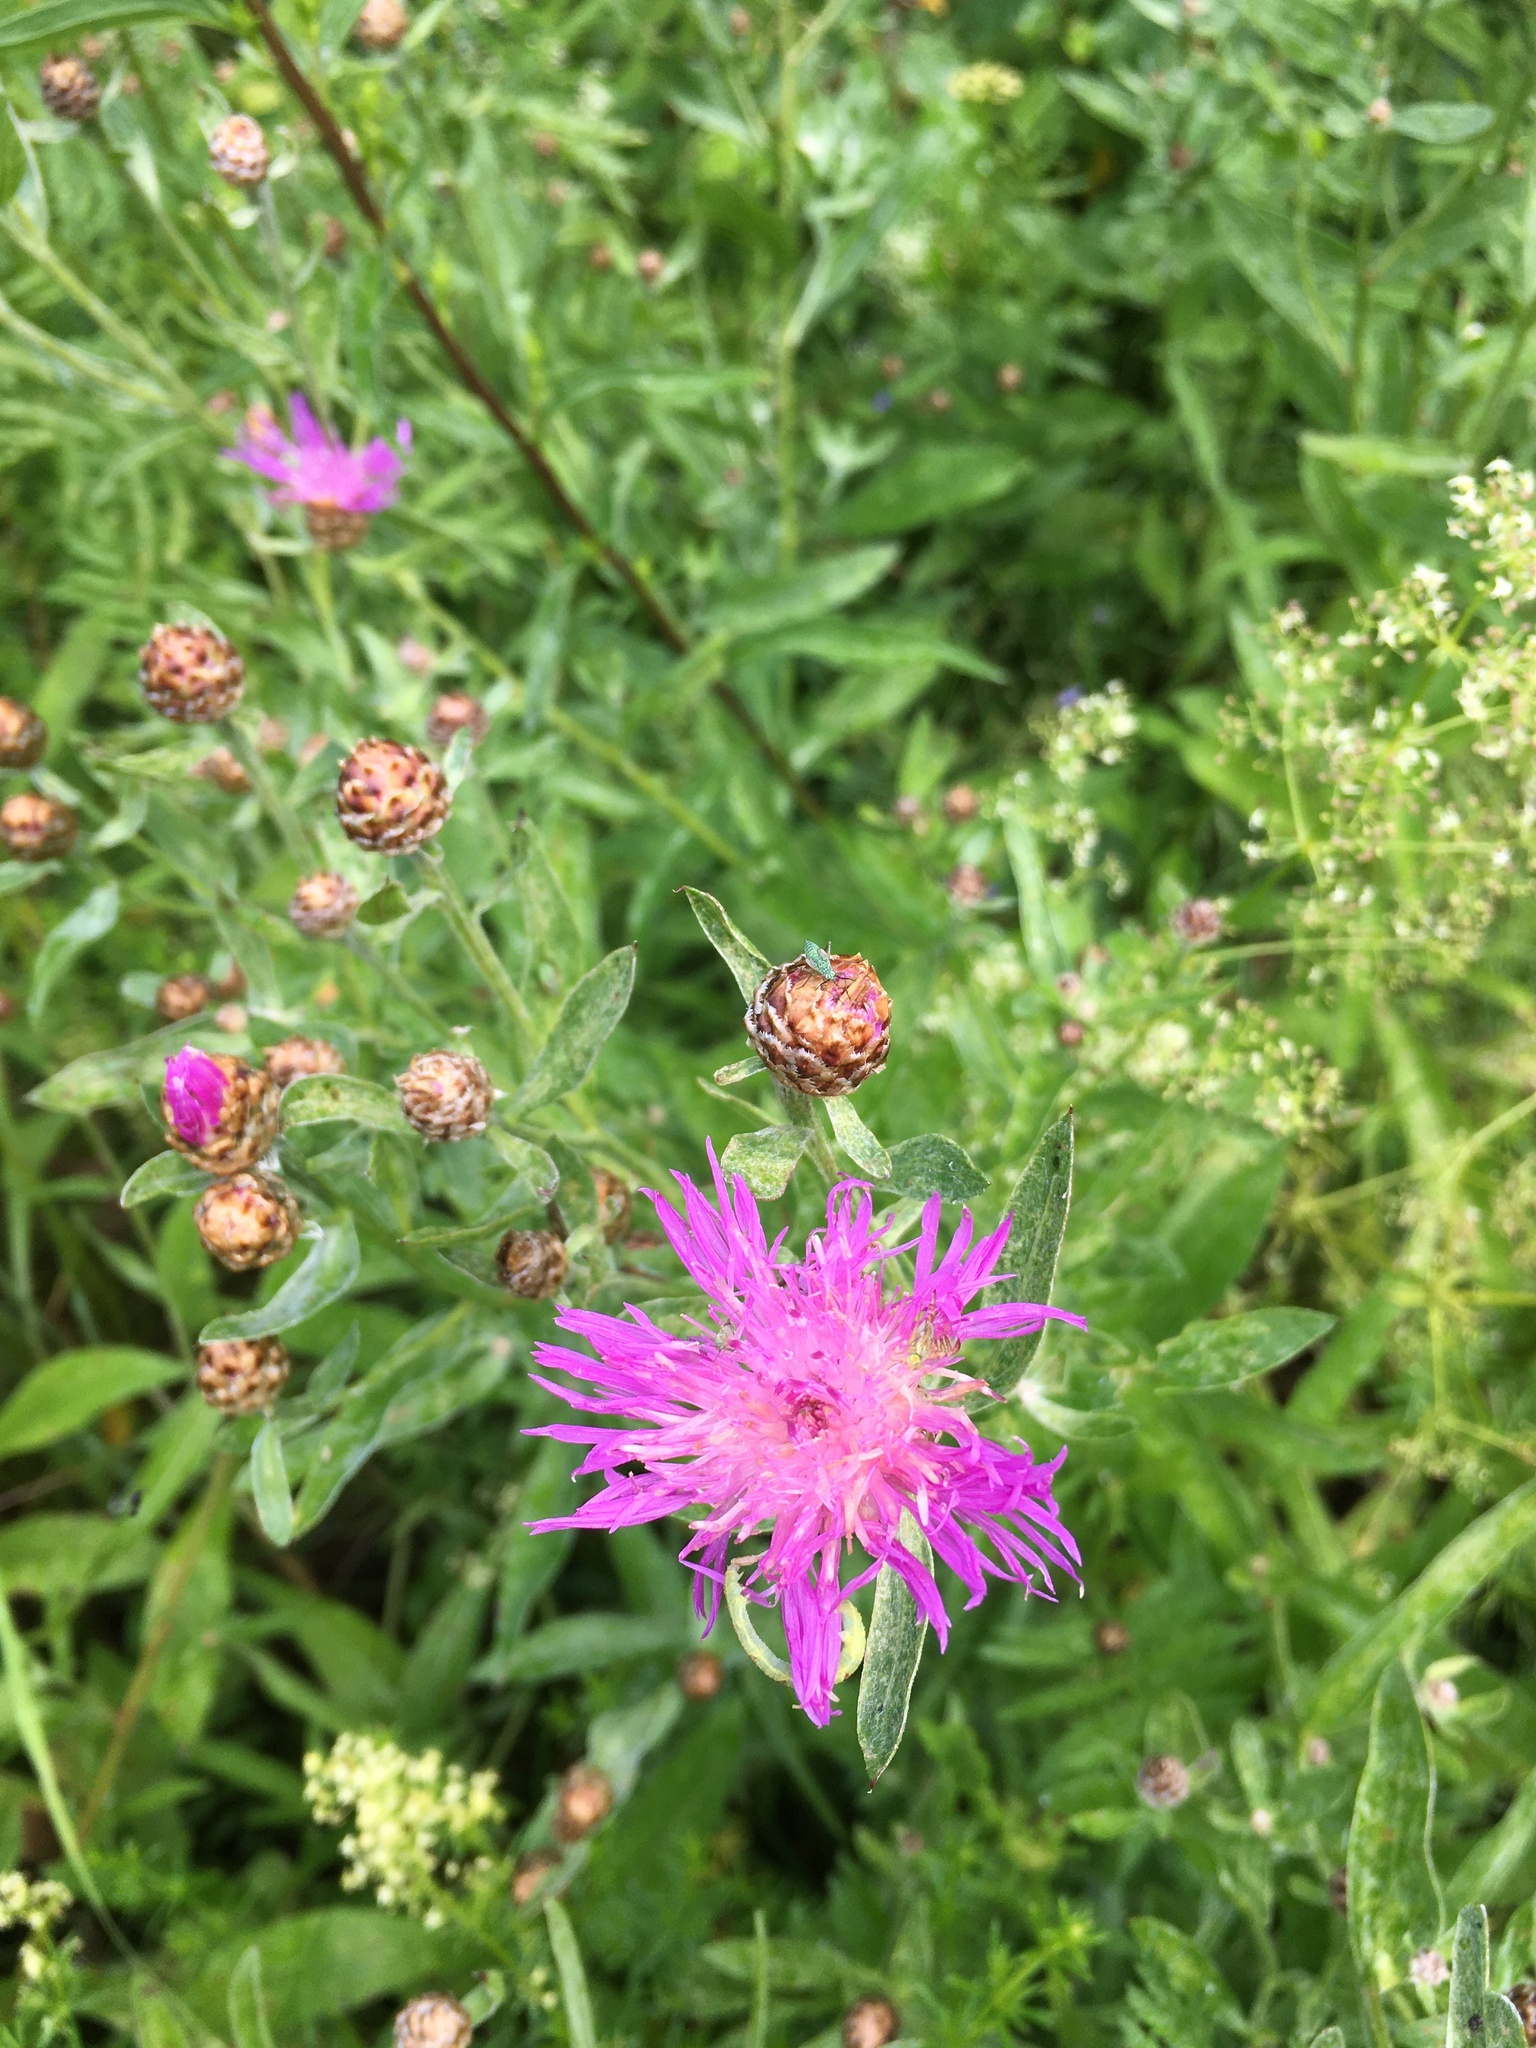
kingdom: Plantae
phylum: Tracheophyta
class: Magnoliopsida
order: Asterales
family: Asteraceae
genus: Centaurea
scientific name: Centaurea jacea
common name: Brown knapweed
